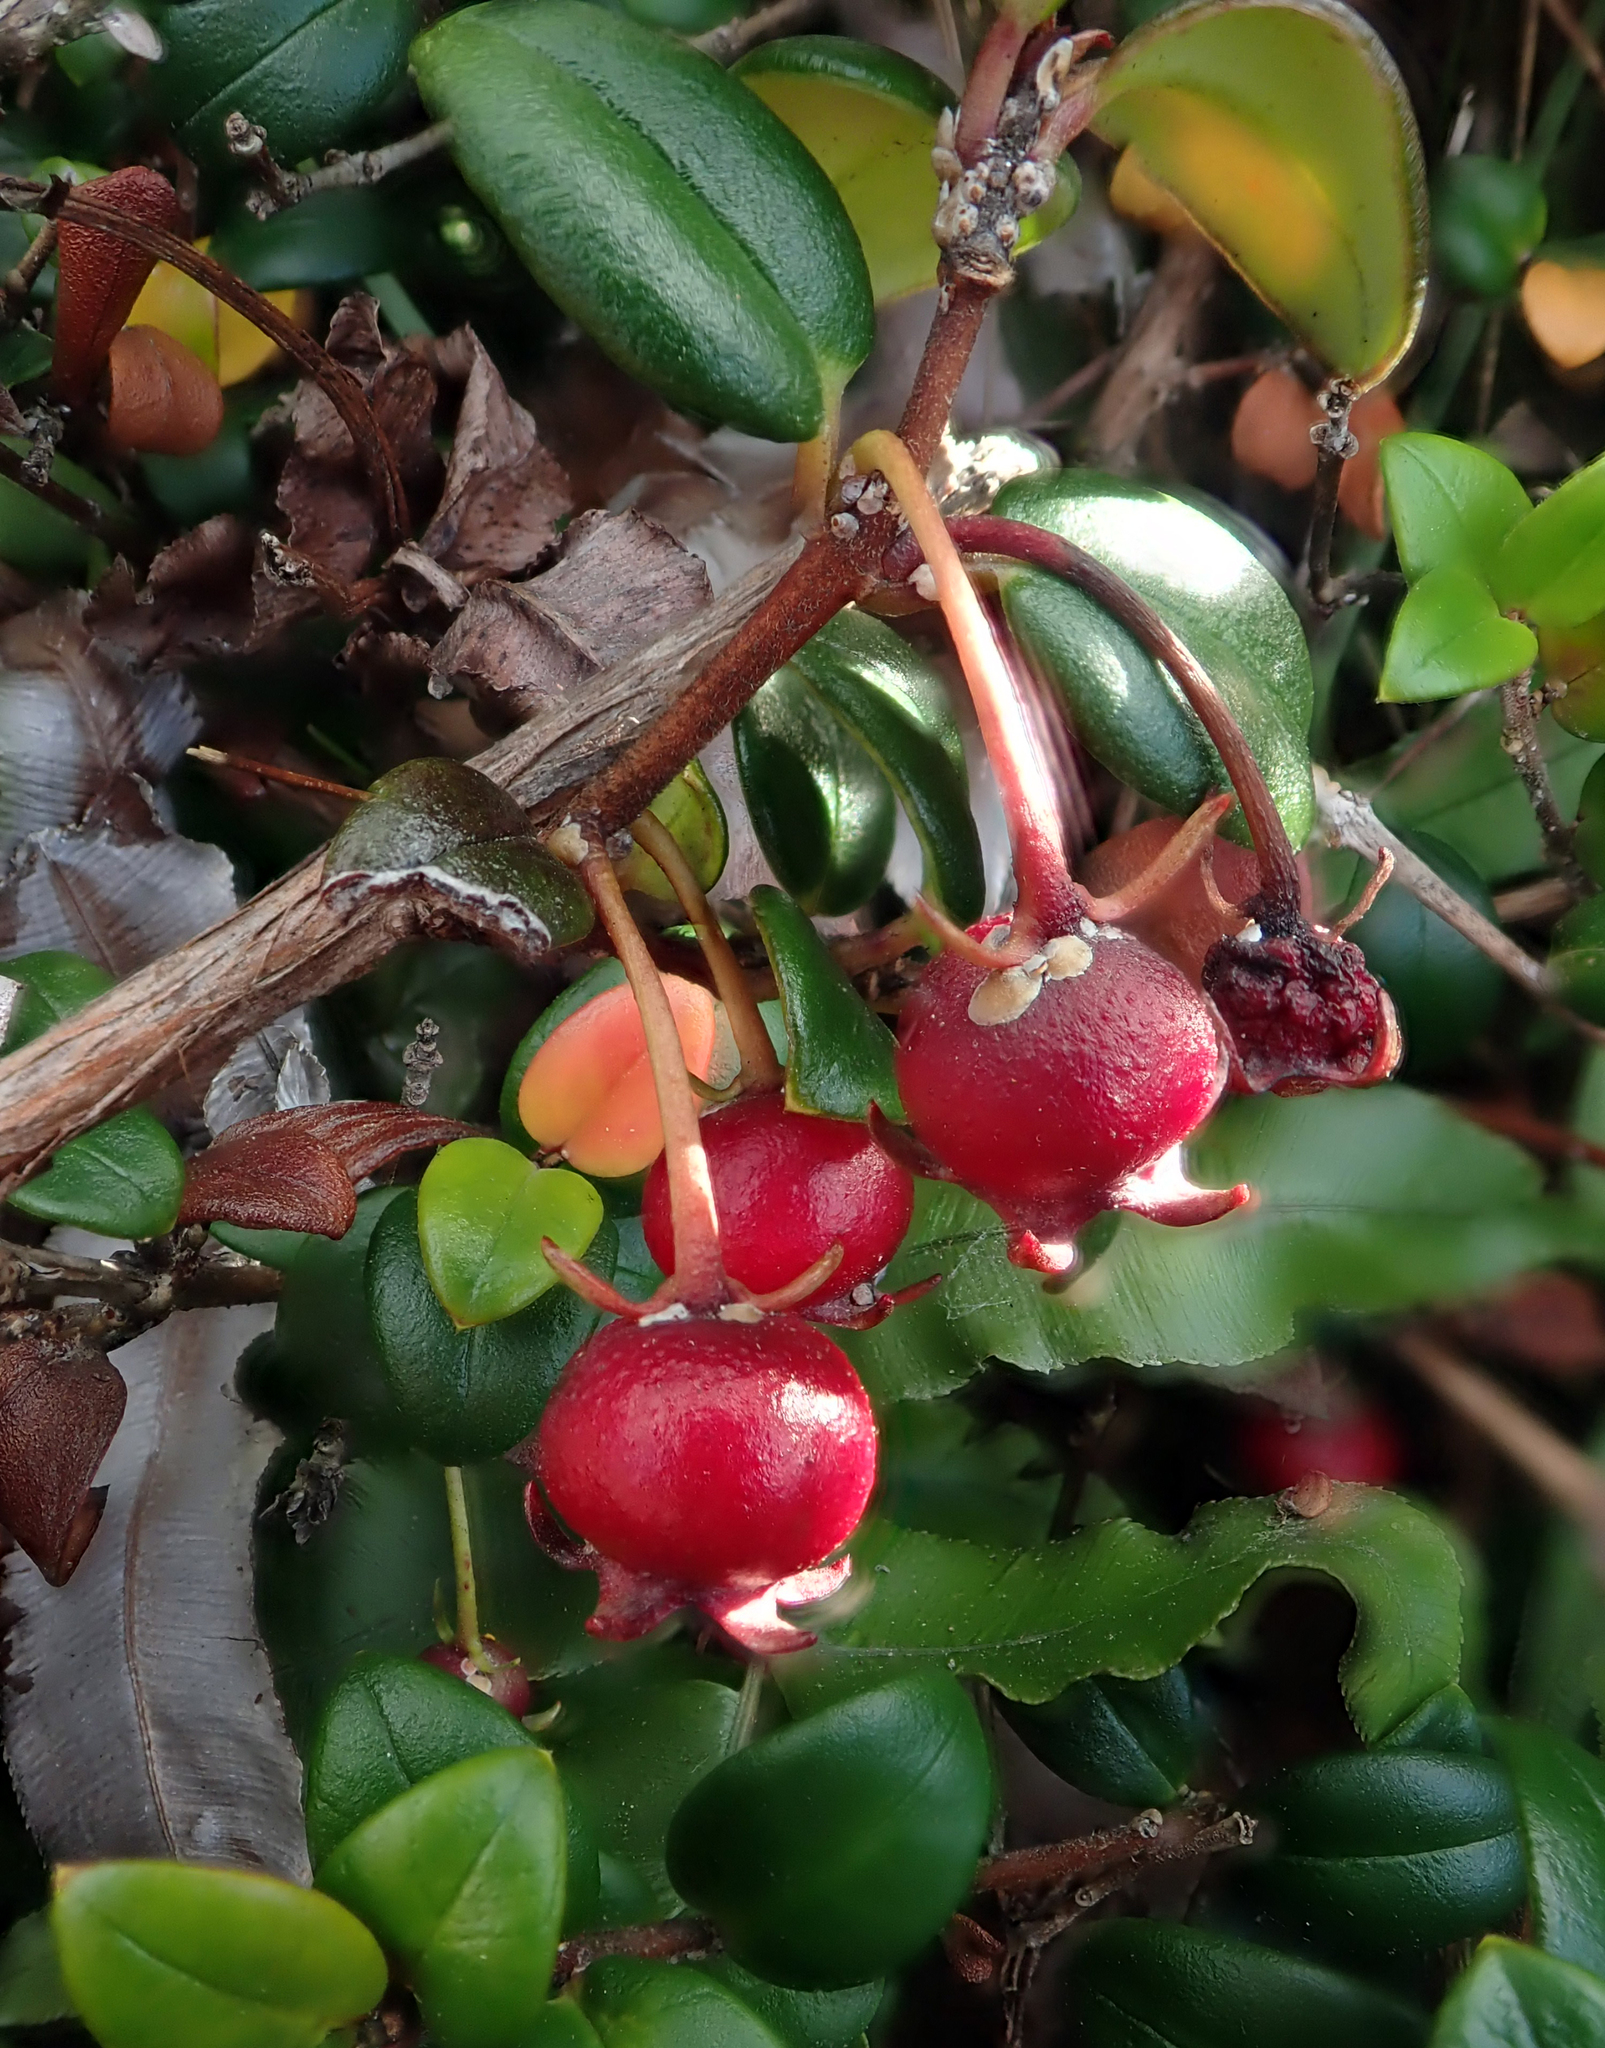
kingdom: Plantae
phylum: Tracheophyta
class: Magnoliopsida
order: Myrtales
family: Myrtaceae
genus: Ugni
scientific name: Ugni molinae
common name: Chilean-guava
